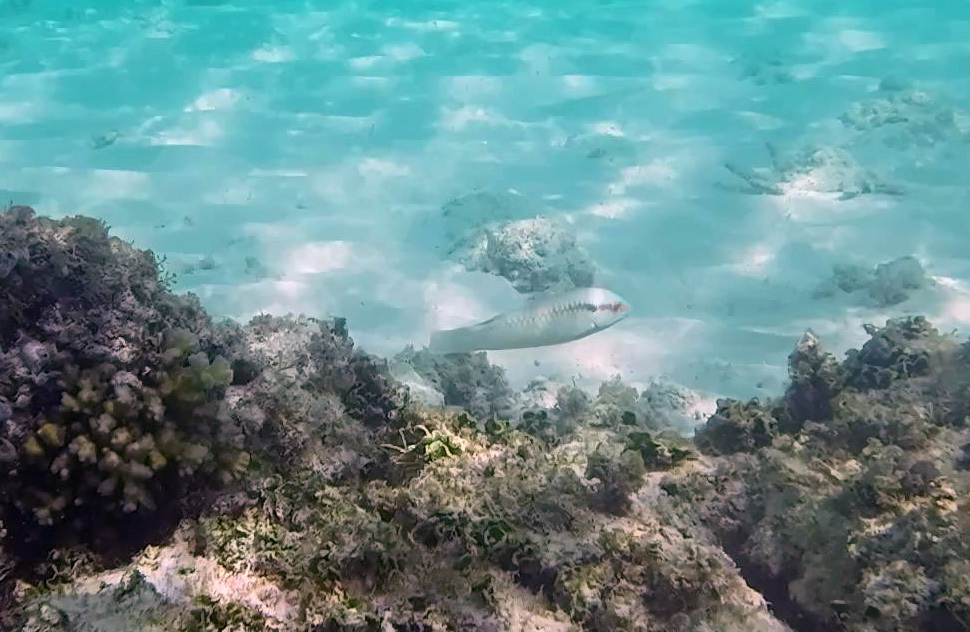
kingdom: Animalia
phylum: Chordata
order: Perciformes
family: Labridae
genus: Halichoeres
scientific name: Halichoeres scapularis
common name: Brownbanded wrasse
